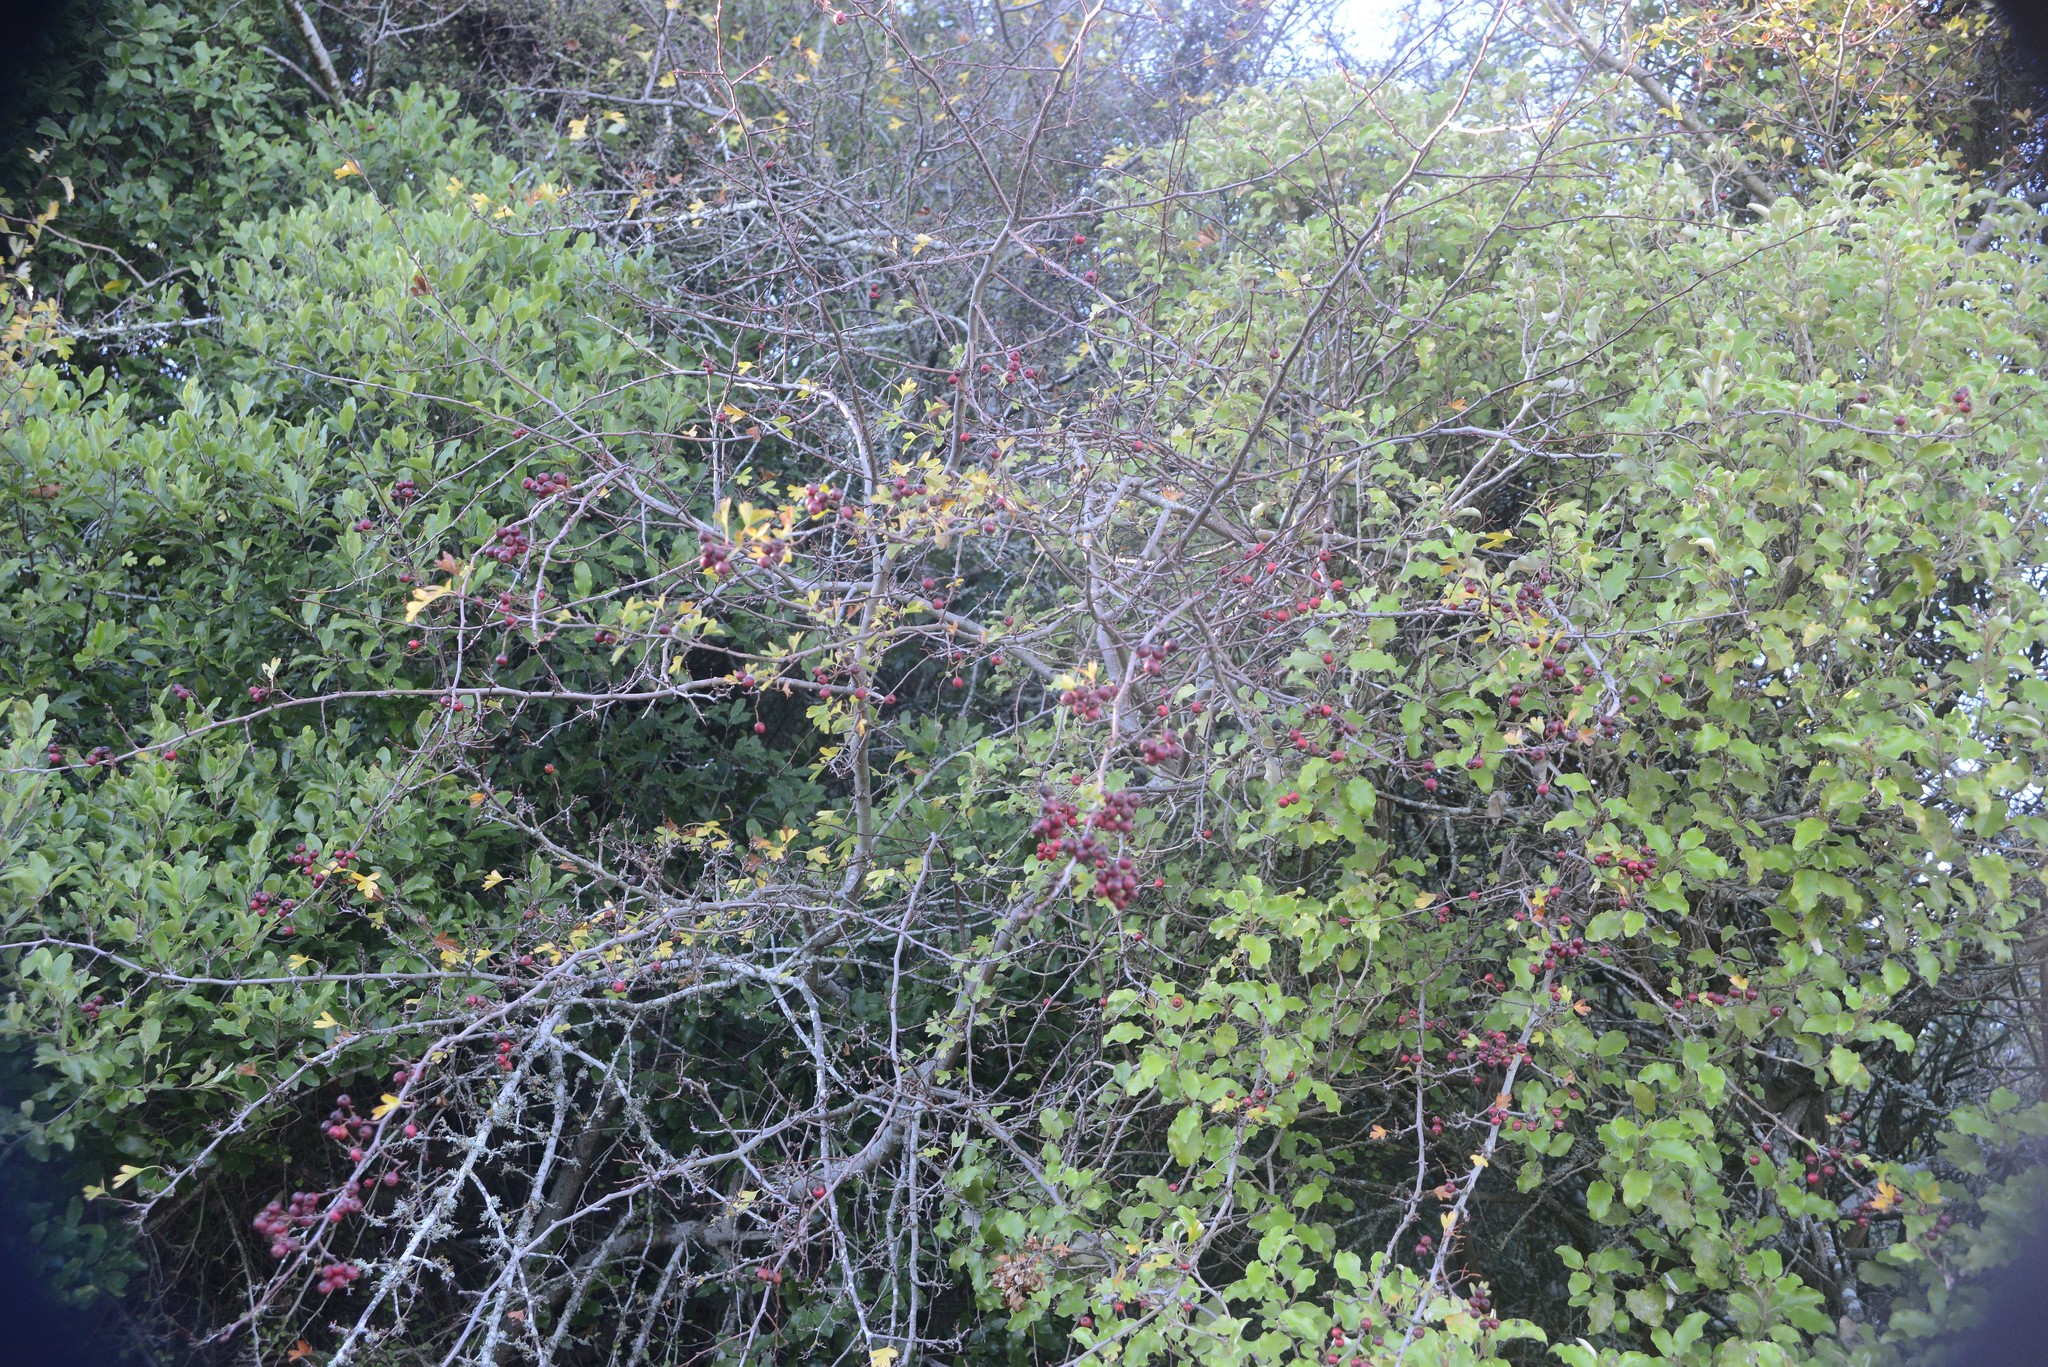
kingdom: Plantae
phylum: Tracheophyta
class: Magnoliopsida
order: Rosales
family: Rosaceae
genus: Crataegus
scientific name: Crataegus monogyna
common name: Hawthorn
